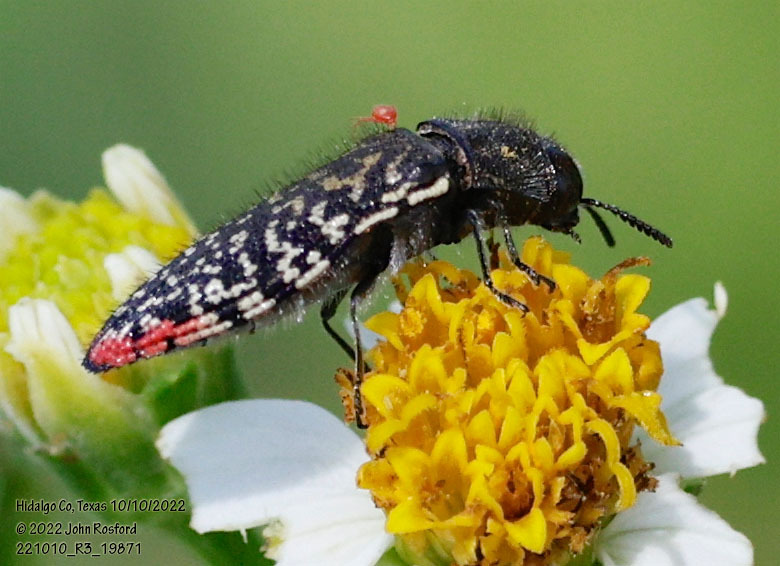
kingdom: Animalia
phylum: Arthropoda
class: Insecta
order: Coleoptera
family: Buprestidae
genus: Acmaeodera
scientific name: Acmaeodera haemorrhoa
